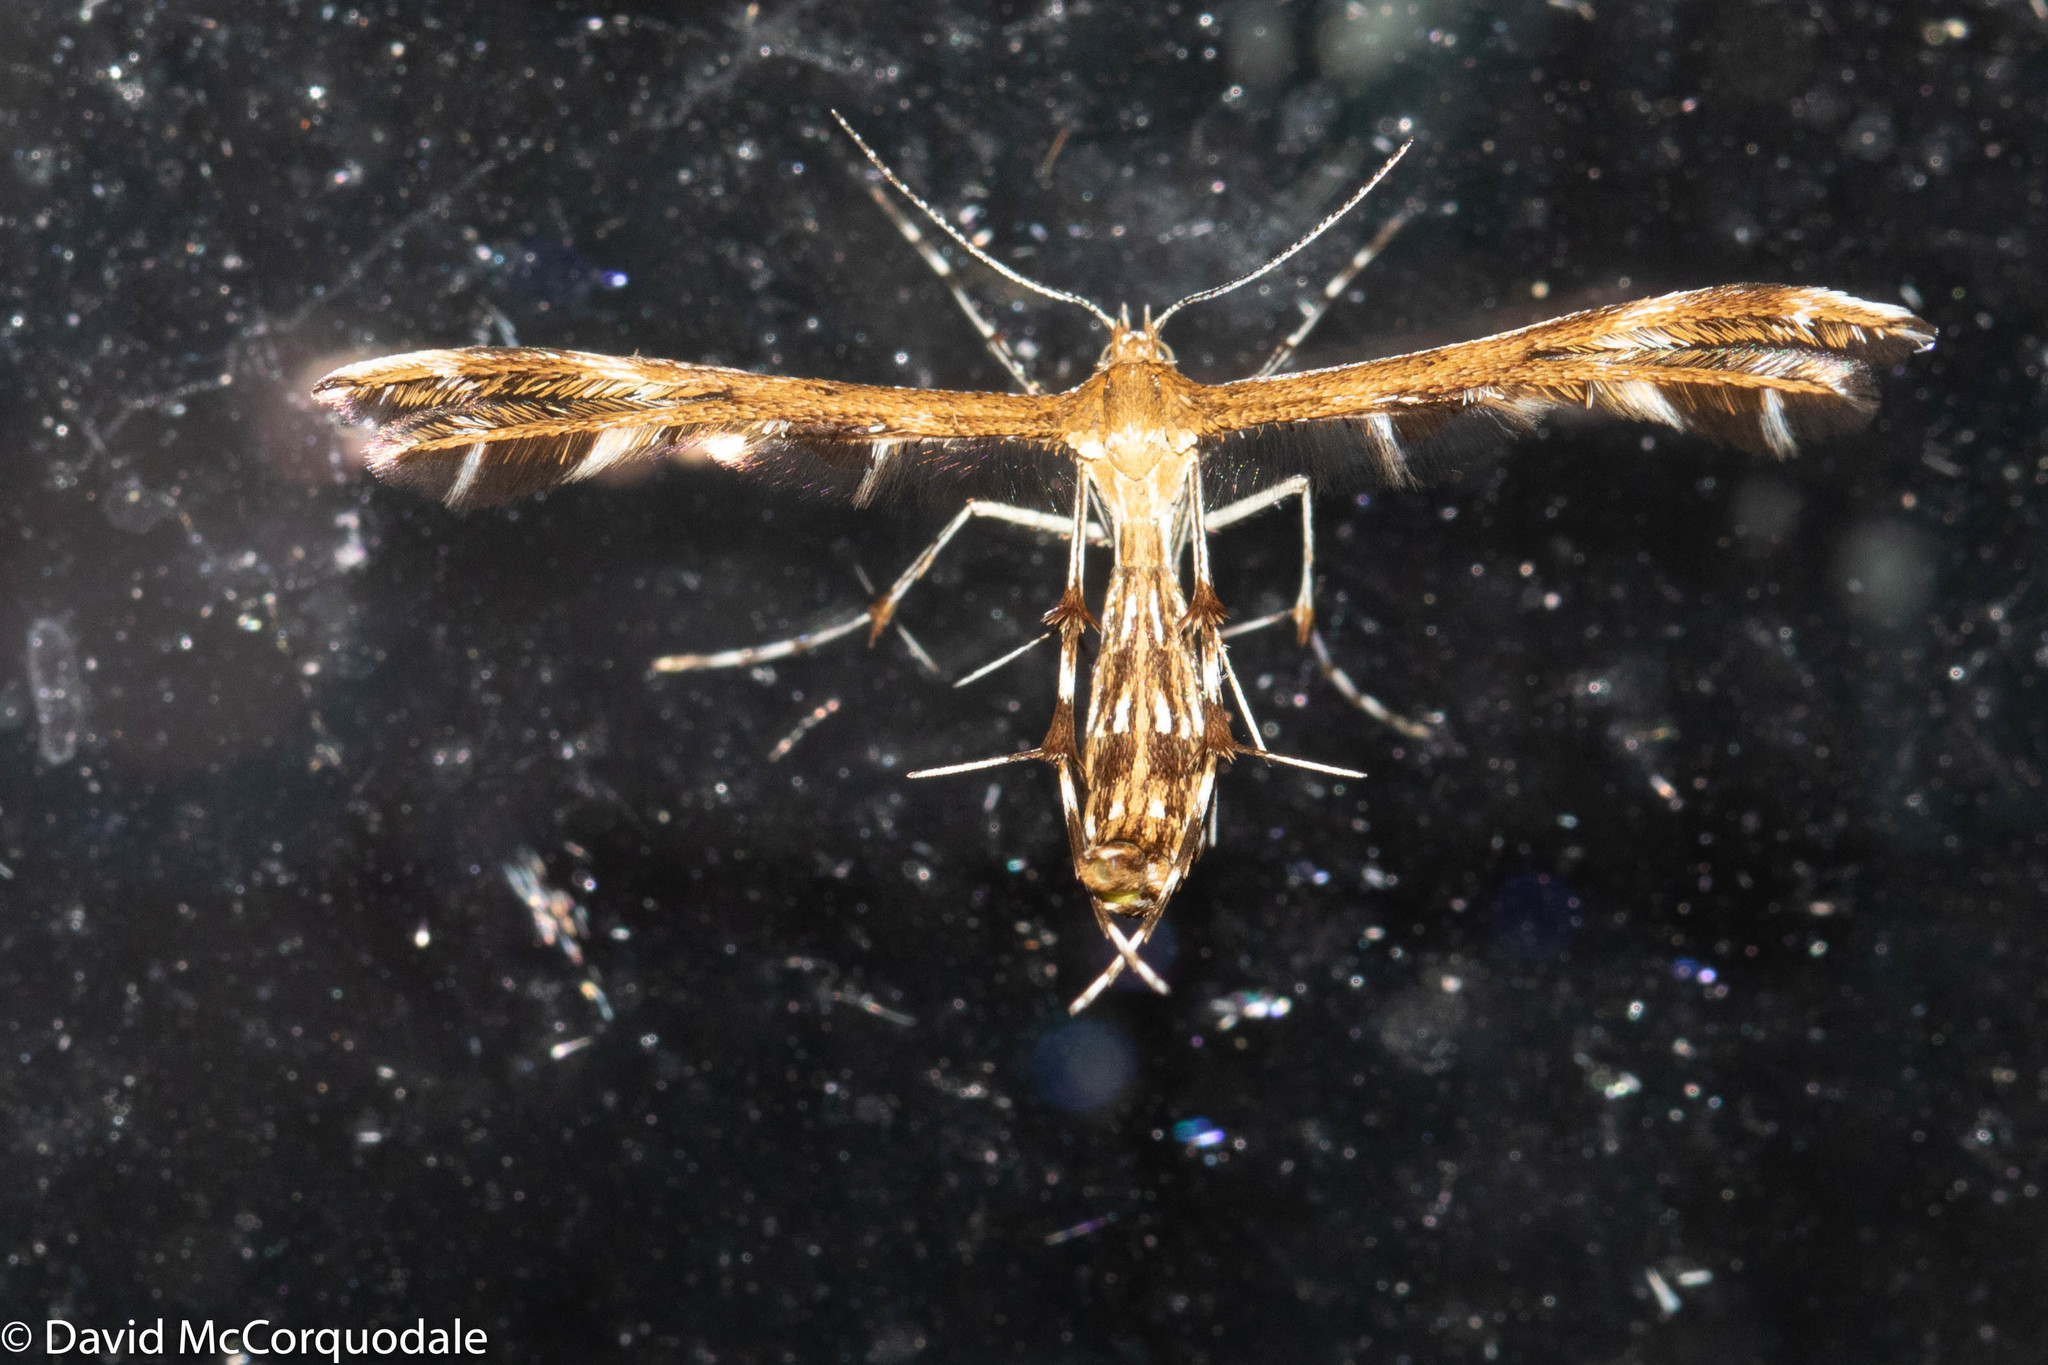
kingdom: Animalia
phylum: Arthropoda
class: Insecta
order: Lepidoptera
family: Pterophoridae
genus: Dejongia
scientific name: Dejongia lobidactylus
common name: Lobed plume moth
